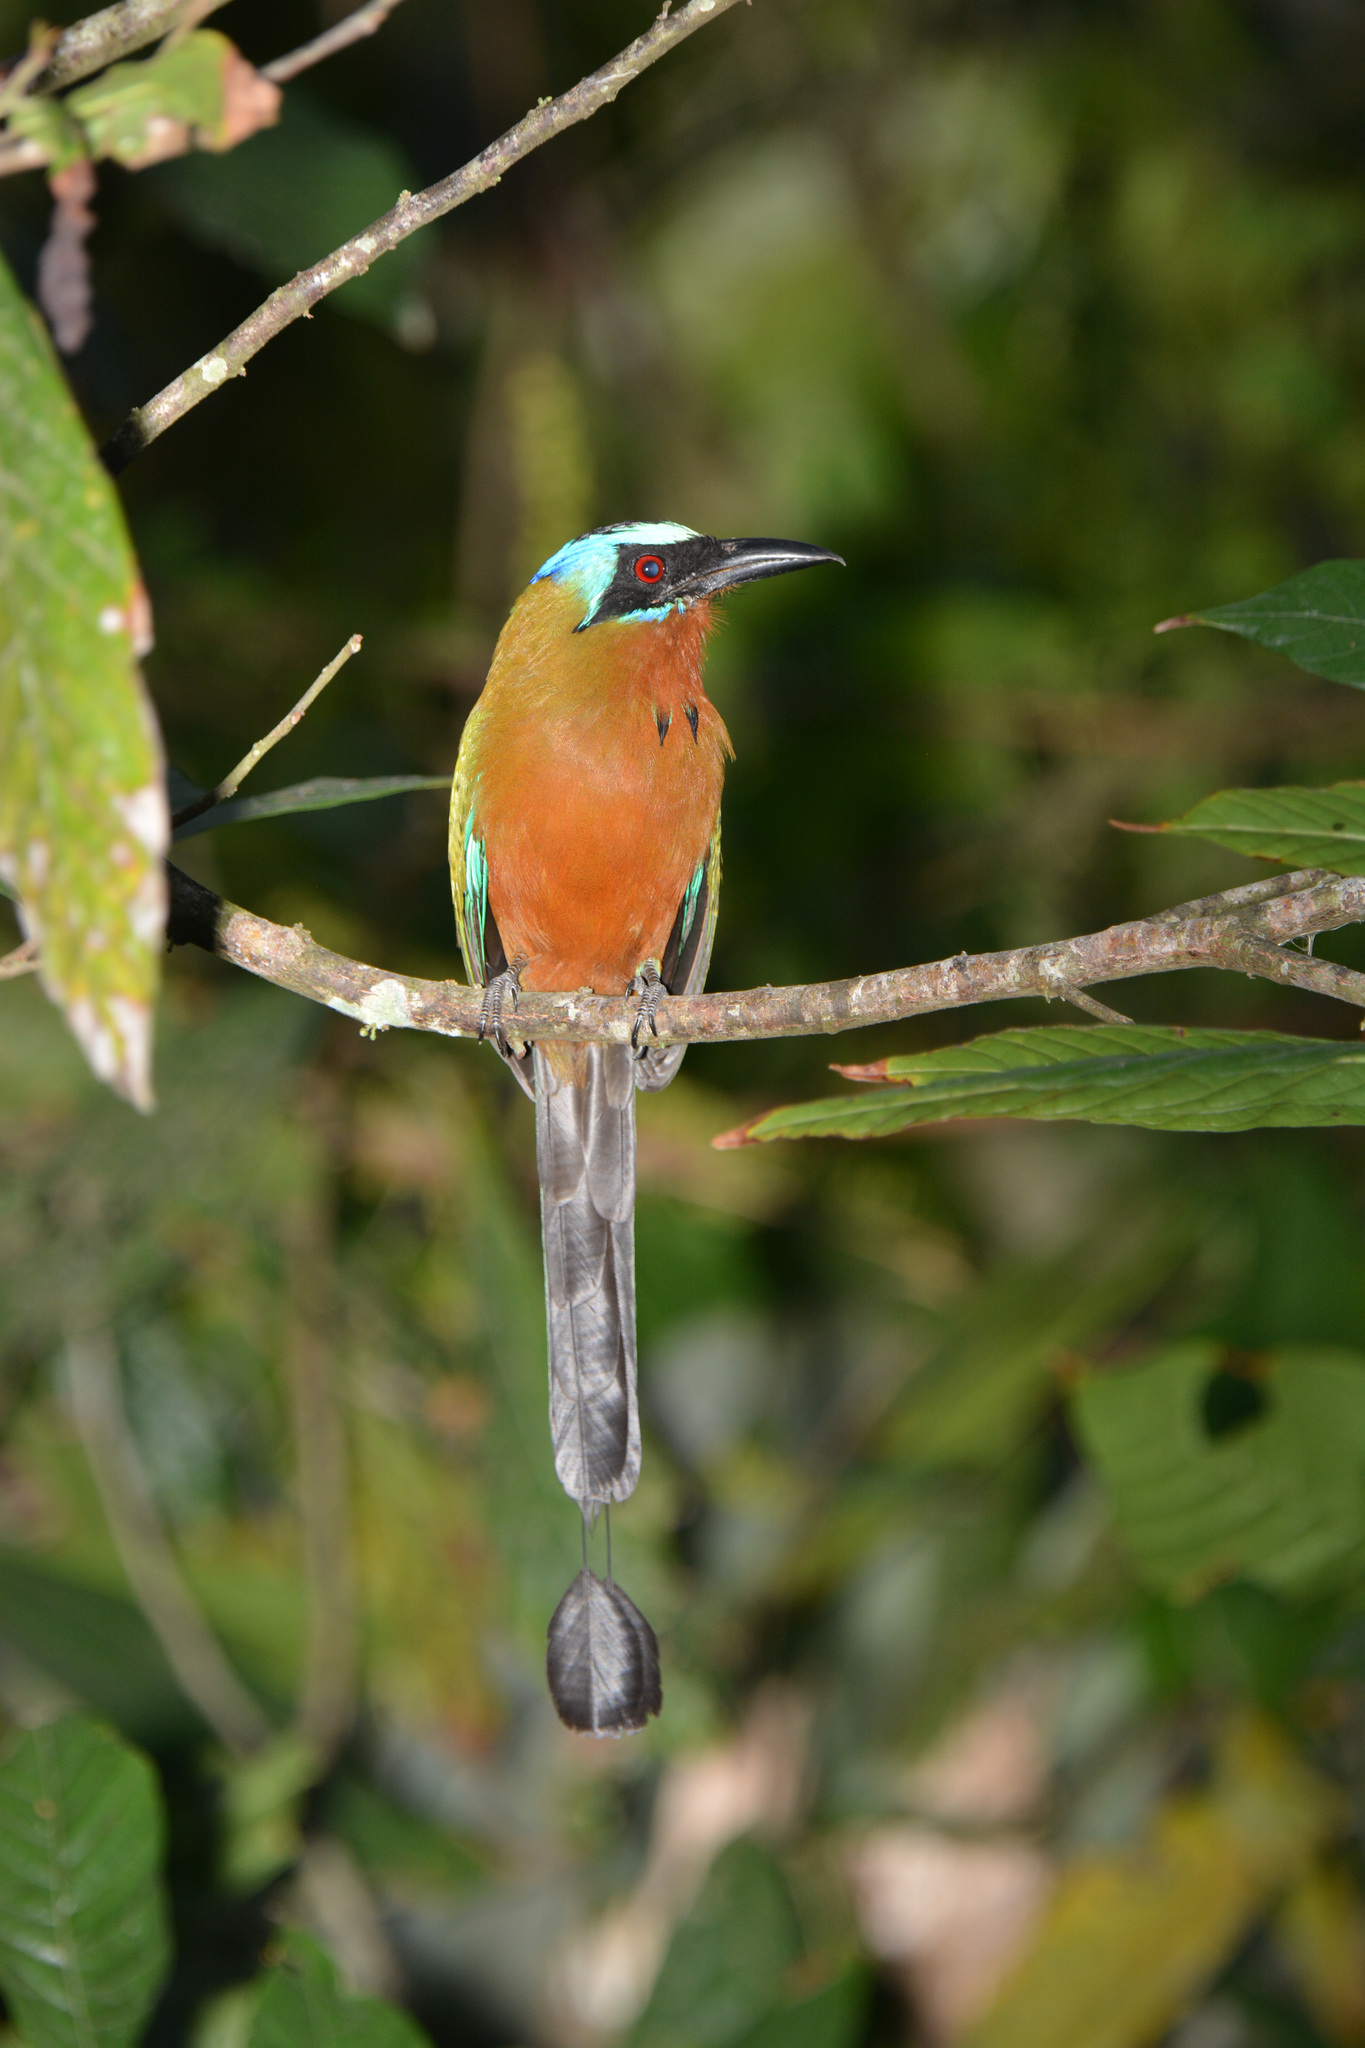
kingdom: Animalia
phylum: Chordata
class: Aves
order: Coraciiformes
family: Momotidae
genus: Momotus
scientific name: Momotus bahamensis
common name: Trinidad motmot
